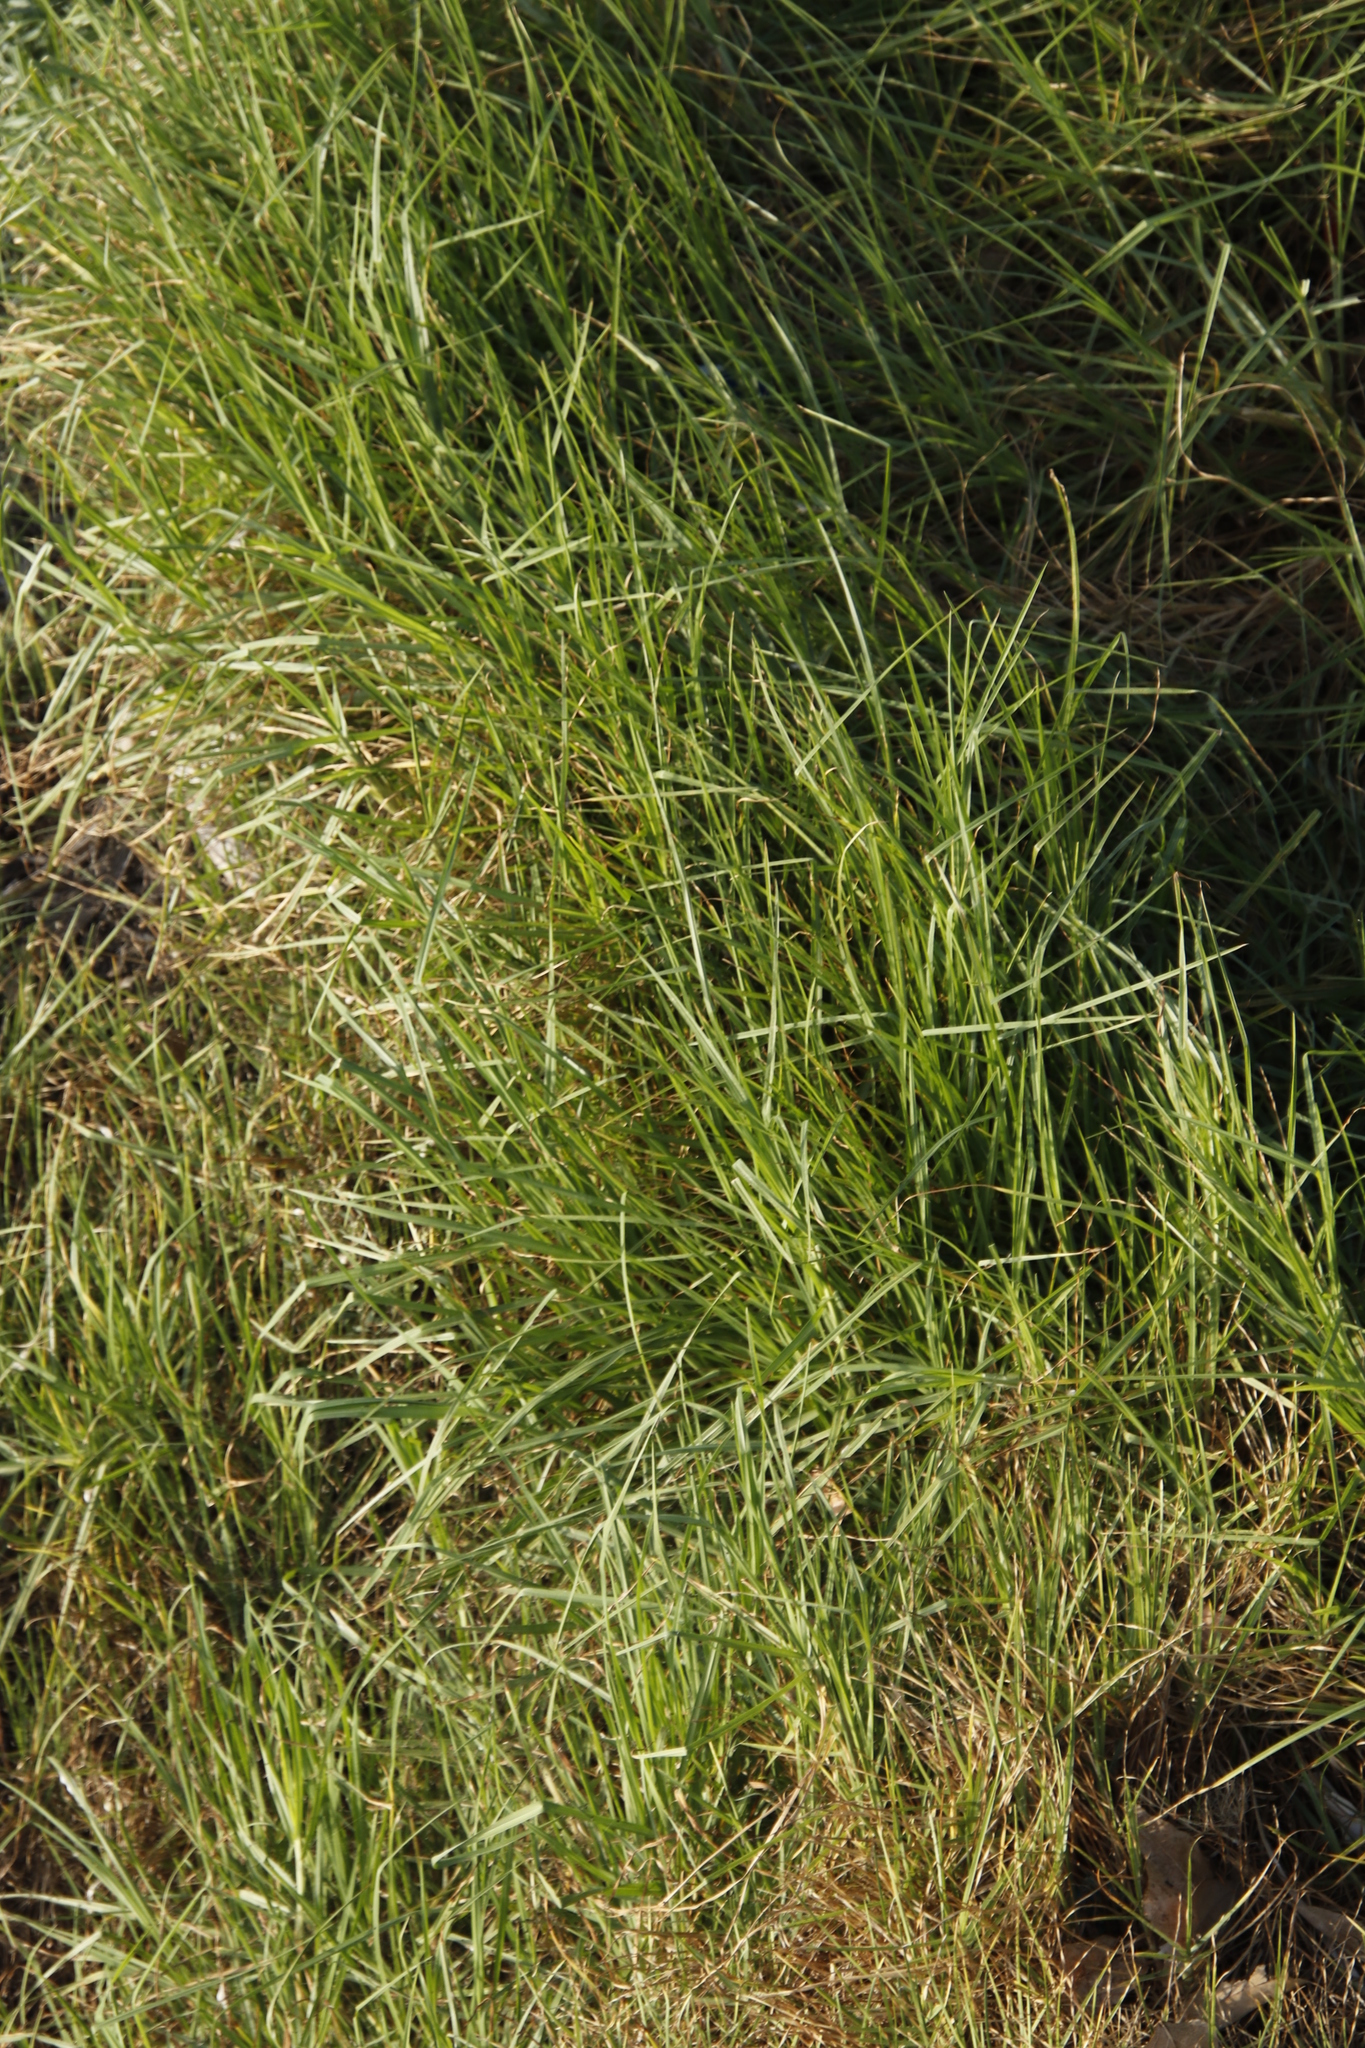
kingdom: Plantae
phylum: Tracheophyta
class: Liliopsida
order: Poales
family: Poaceae
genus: Cenchrus
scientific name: Cenchrus clandestinus
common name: Kikuyugrass
